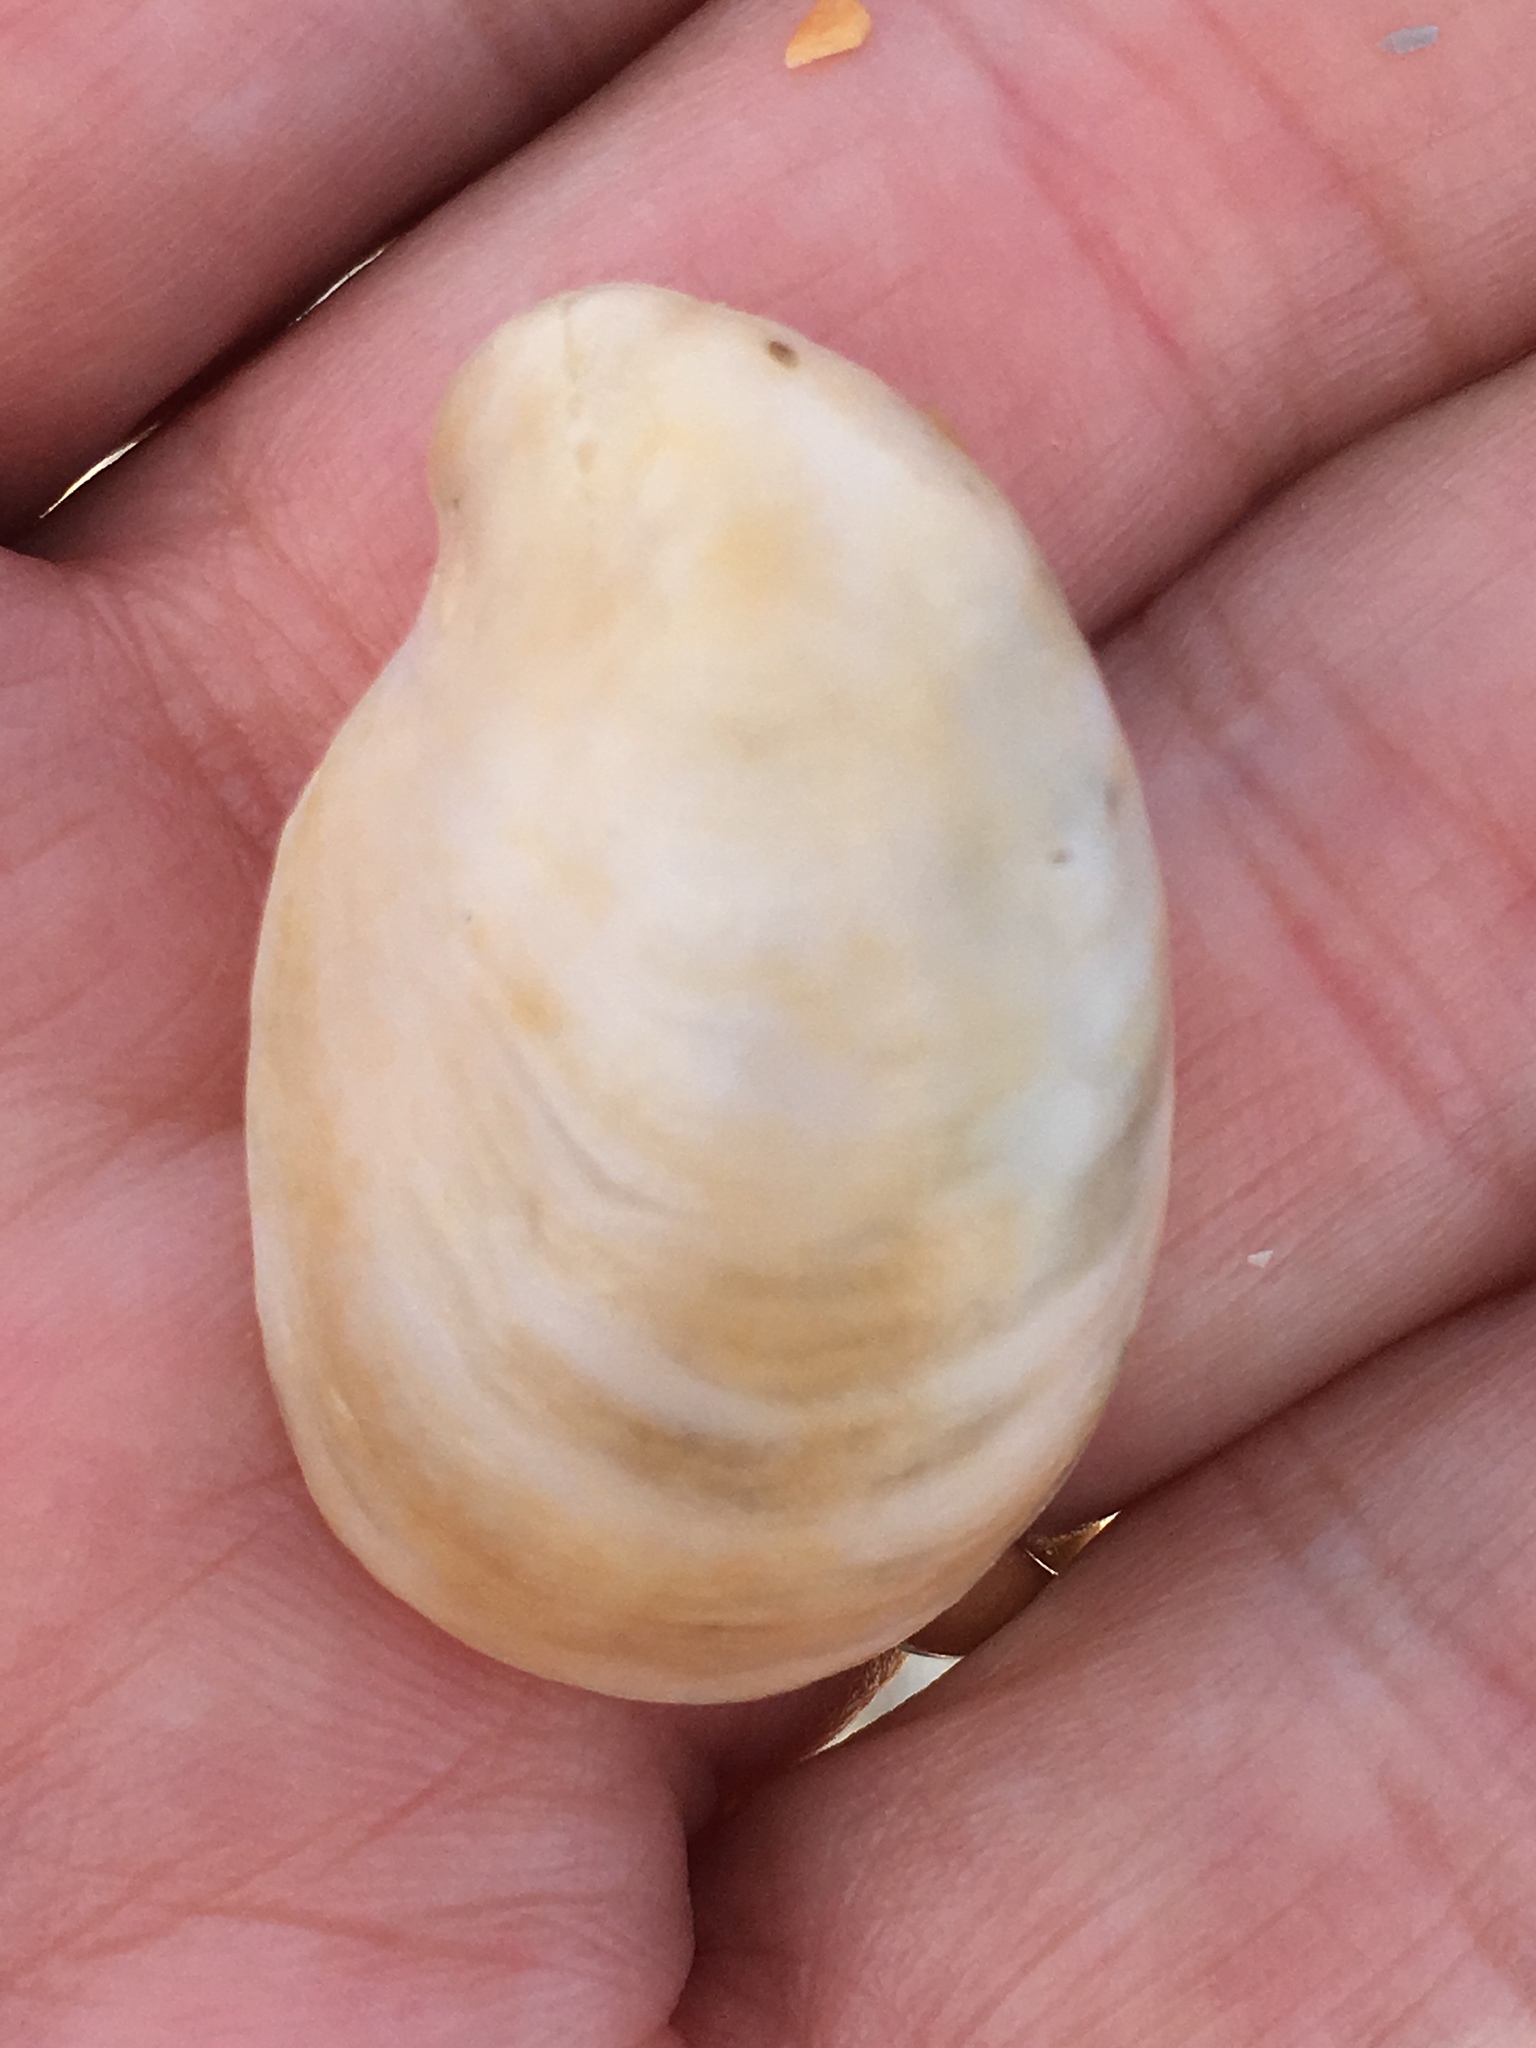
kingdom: Animalia
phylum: Mollusca
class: Gastropoda
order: Littorinimorpha
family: Calyptraeidae
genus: Crepidula
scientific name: Crepidula fornicata
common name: Slipper limpet
